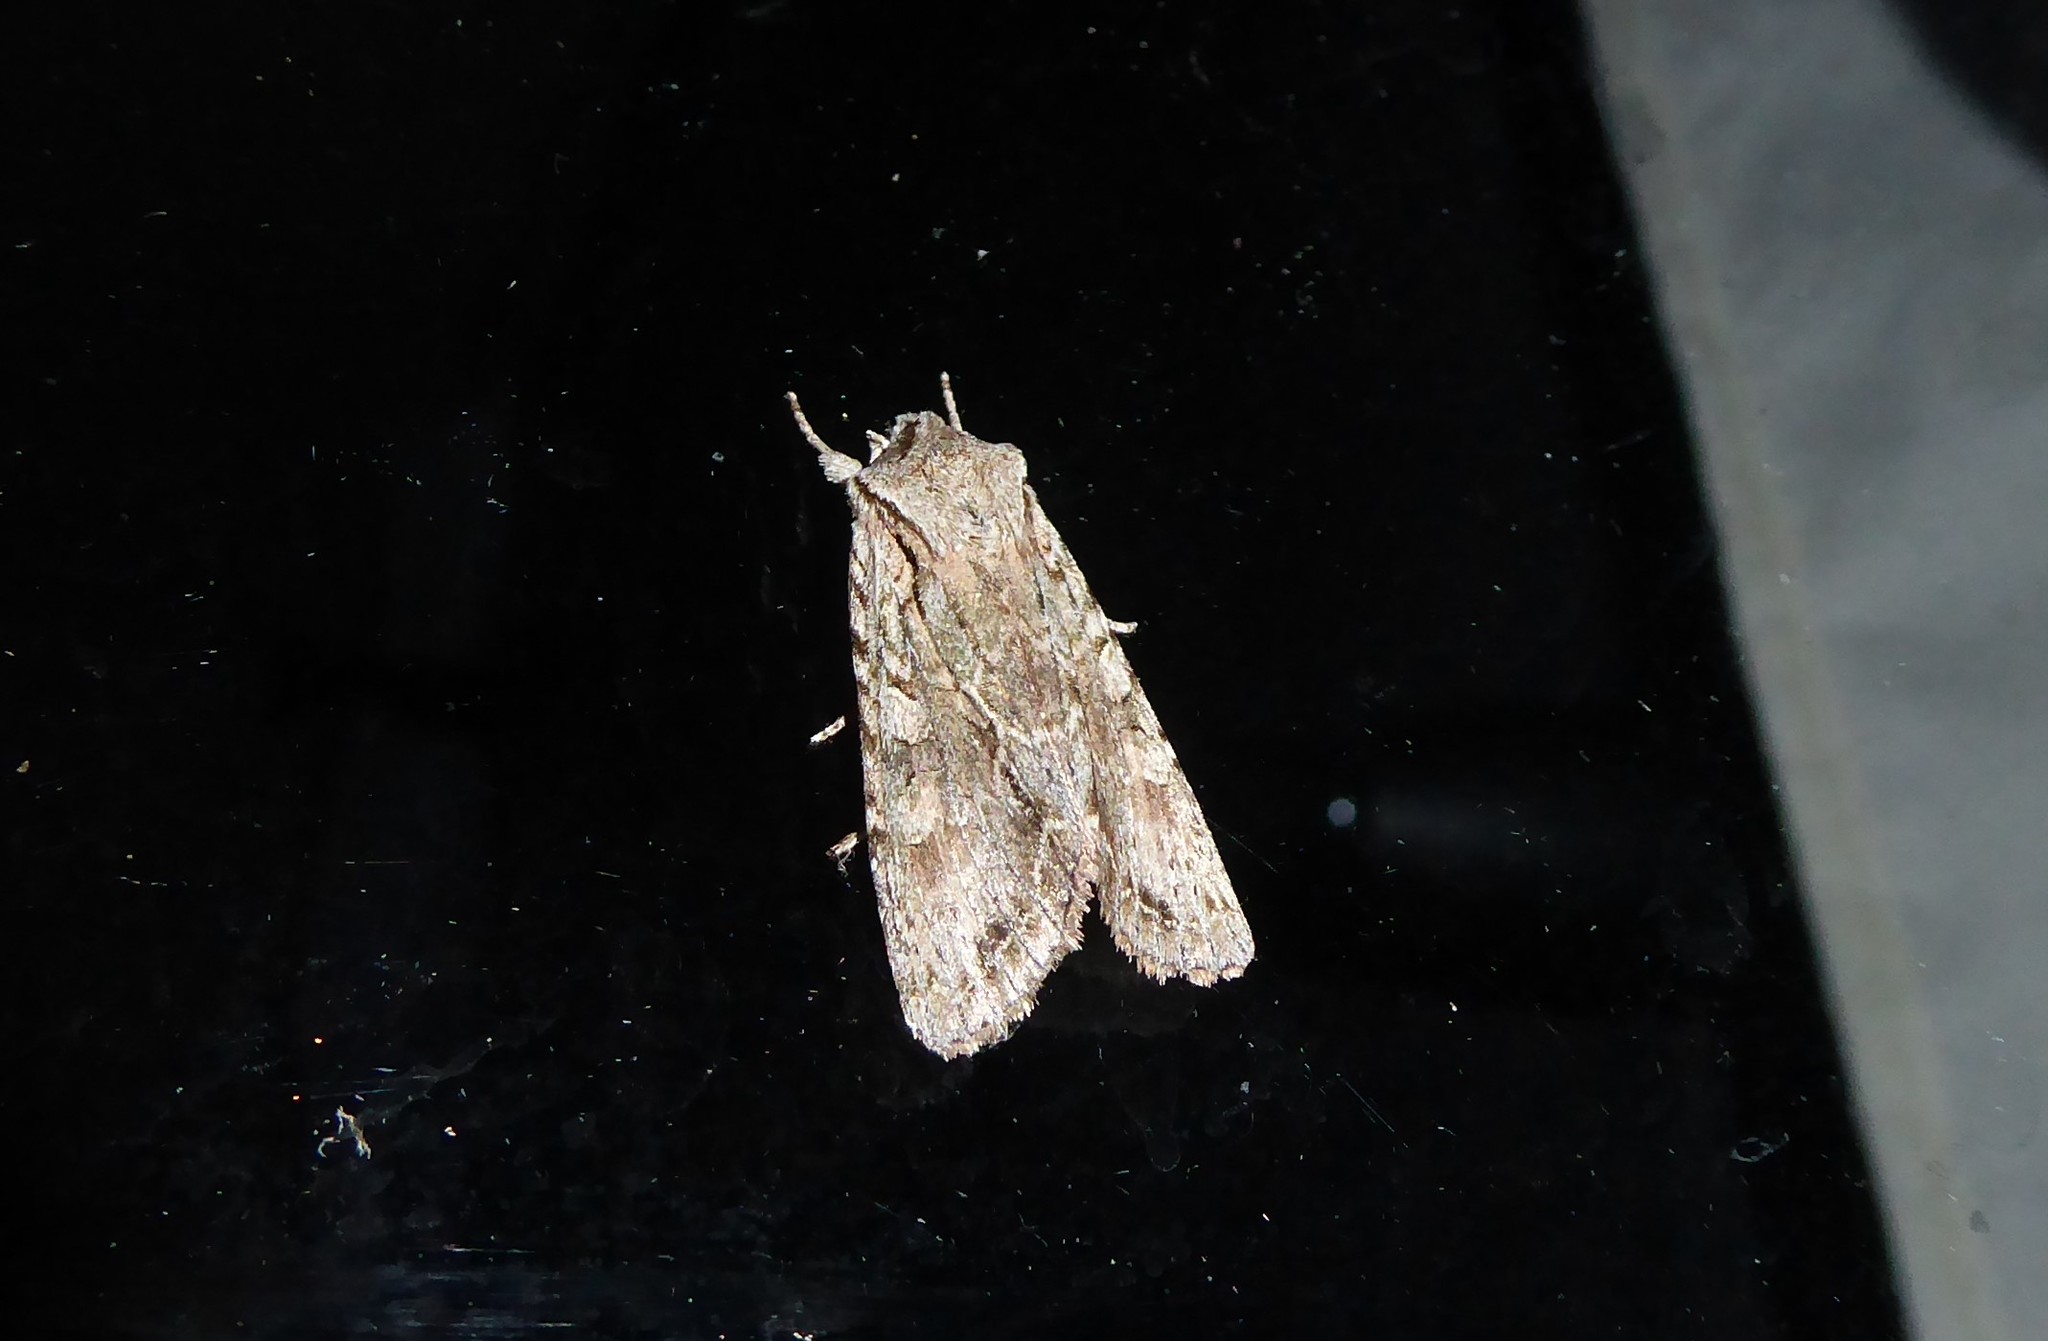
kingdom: Animalia
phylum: Arthropoda
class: Insecta
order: Lepidoptera
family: Noctuidae
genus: Ichneutica
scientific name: Ichneutica mutans
